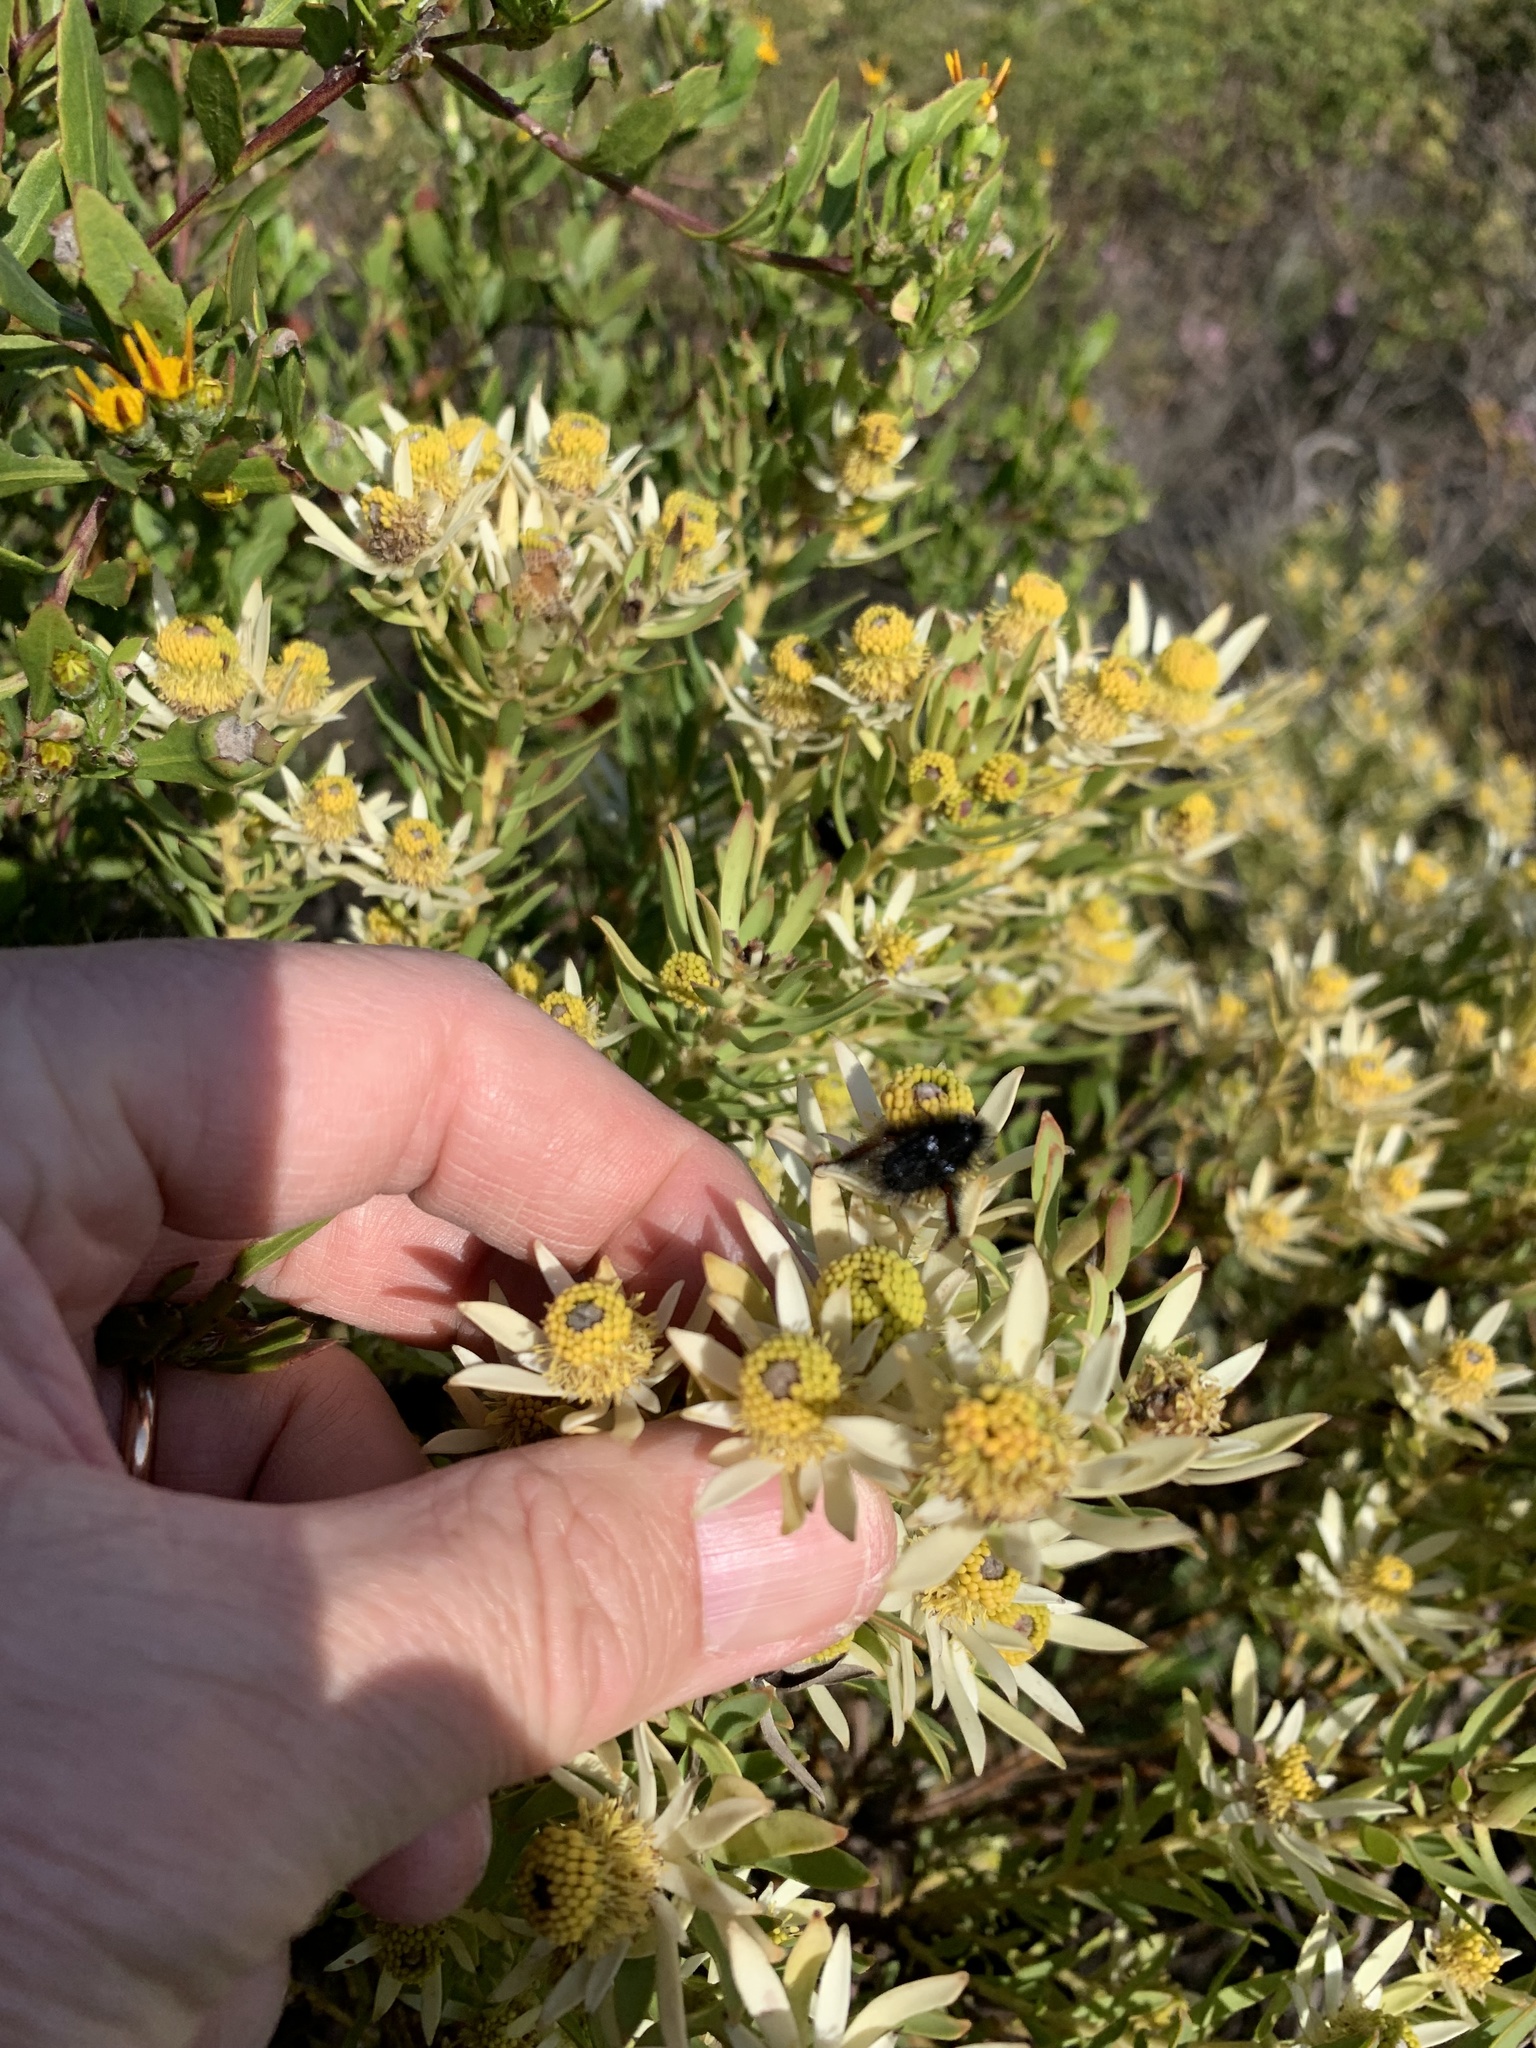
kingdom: Plantae
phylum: Tracheophyta
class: Magnoliopsida
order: Proteales
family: Proteaceae
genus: Leucadendron
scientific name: Leucadendron lanigerum
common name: Shale conebush
